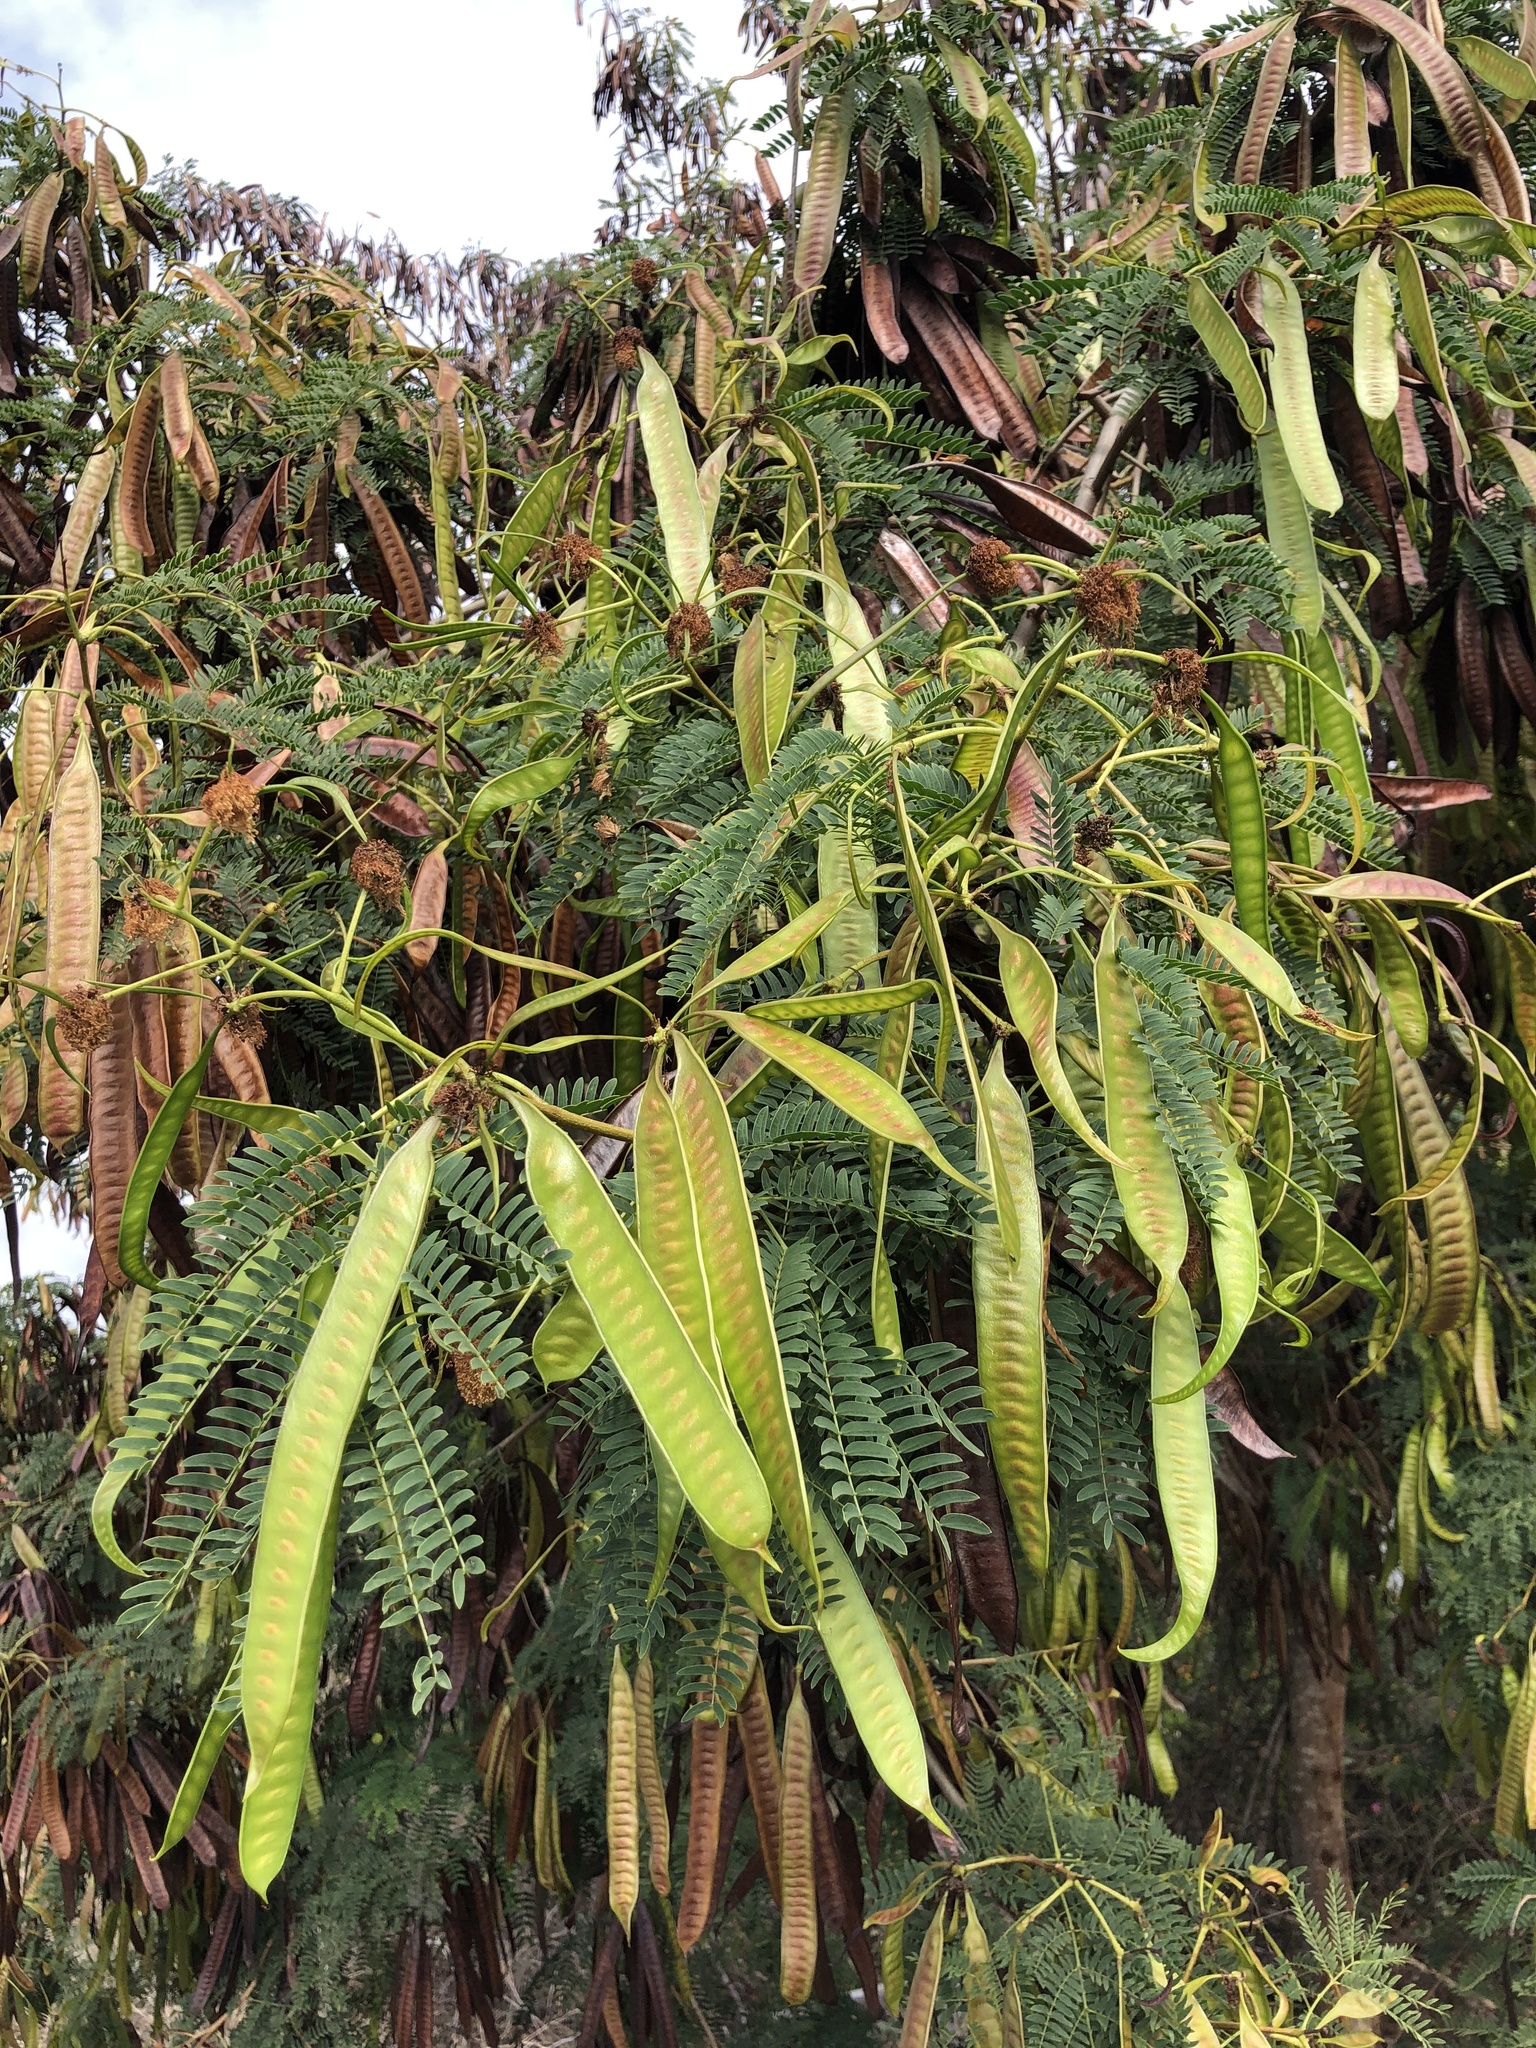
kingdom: Plantae
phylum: Tracheophyta
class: Magnoliopsida
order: Fabales
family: Fabaceae
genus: Leucaena
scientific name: Leucaena leucocephala
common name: White leadtree
